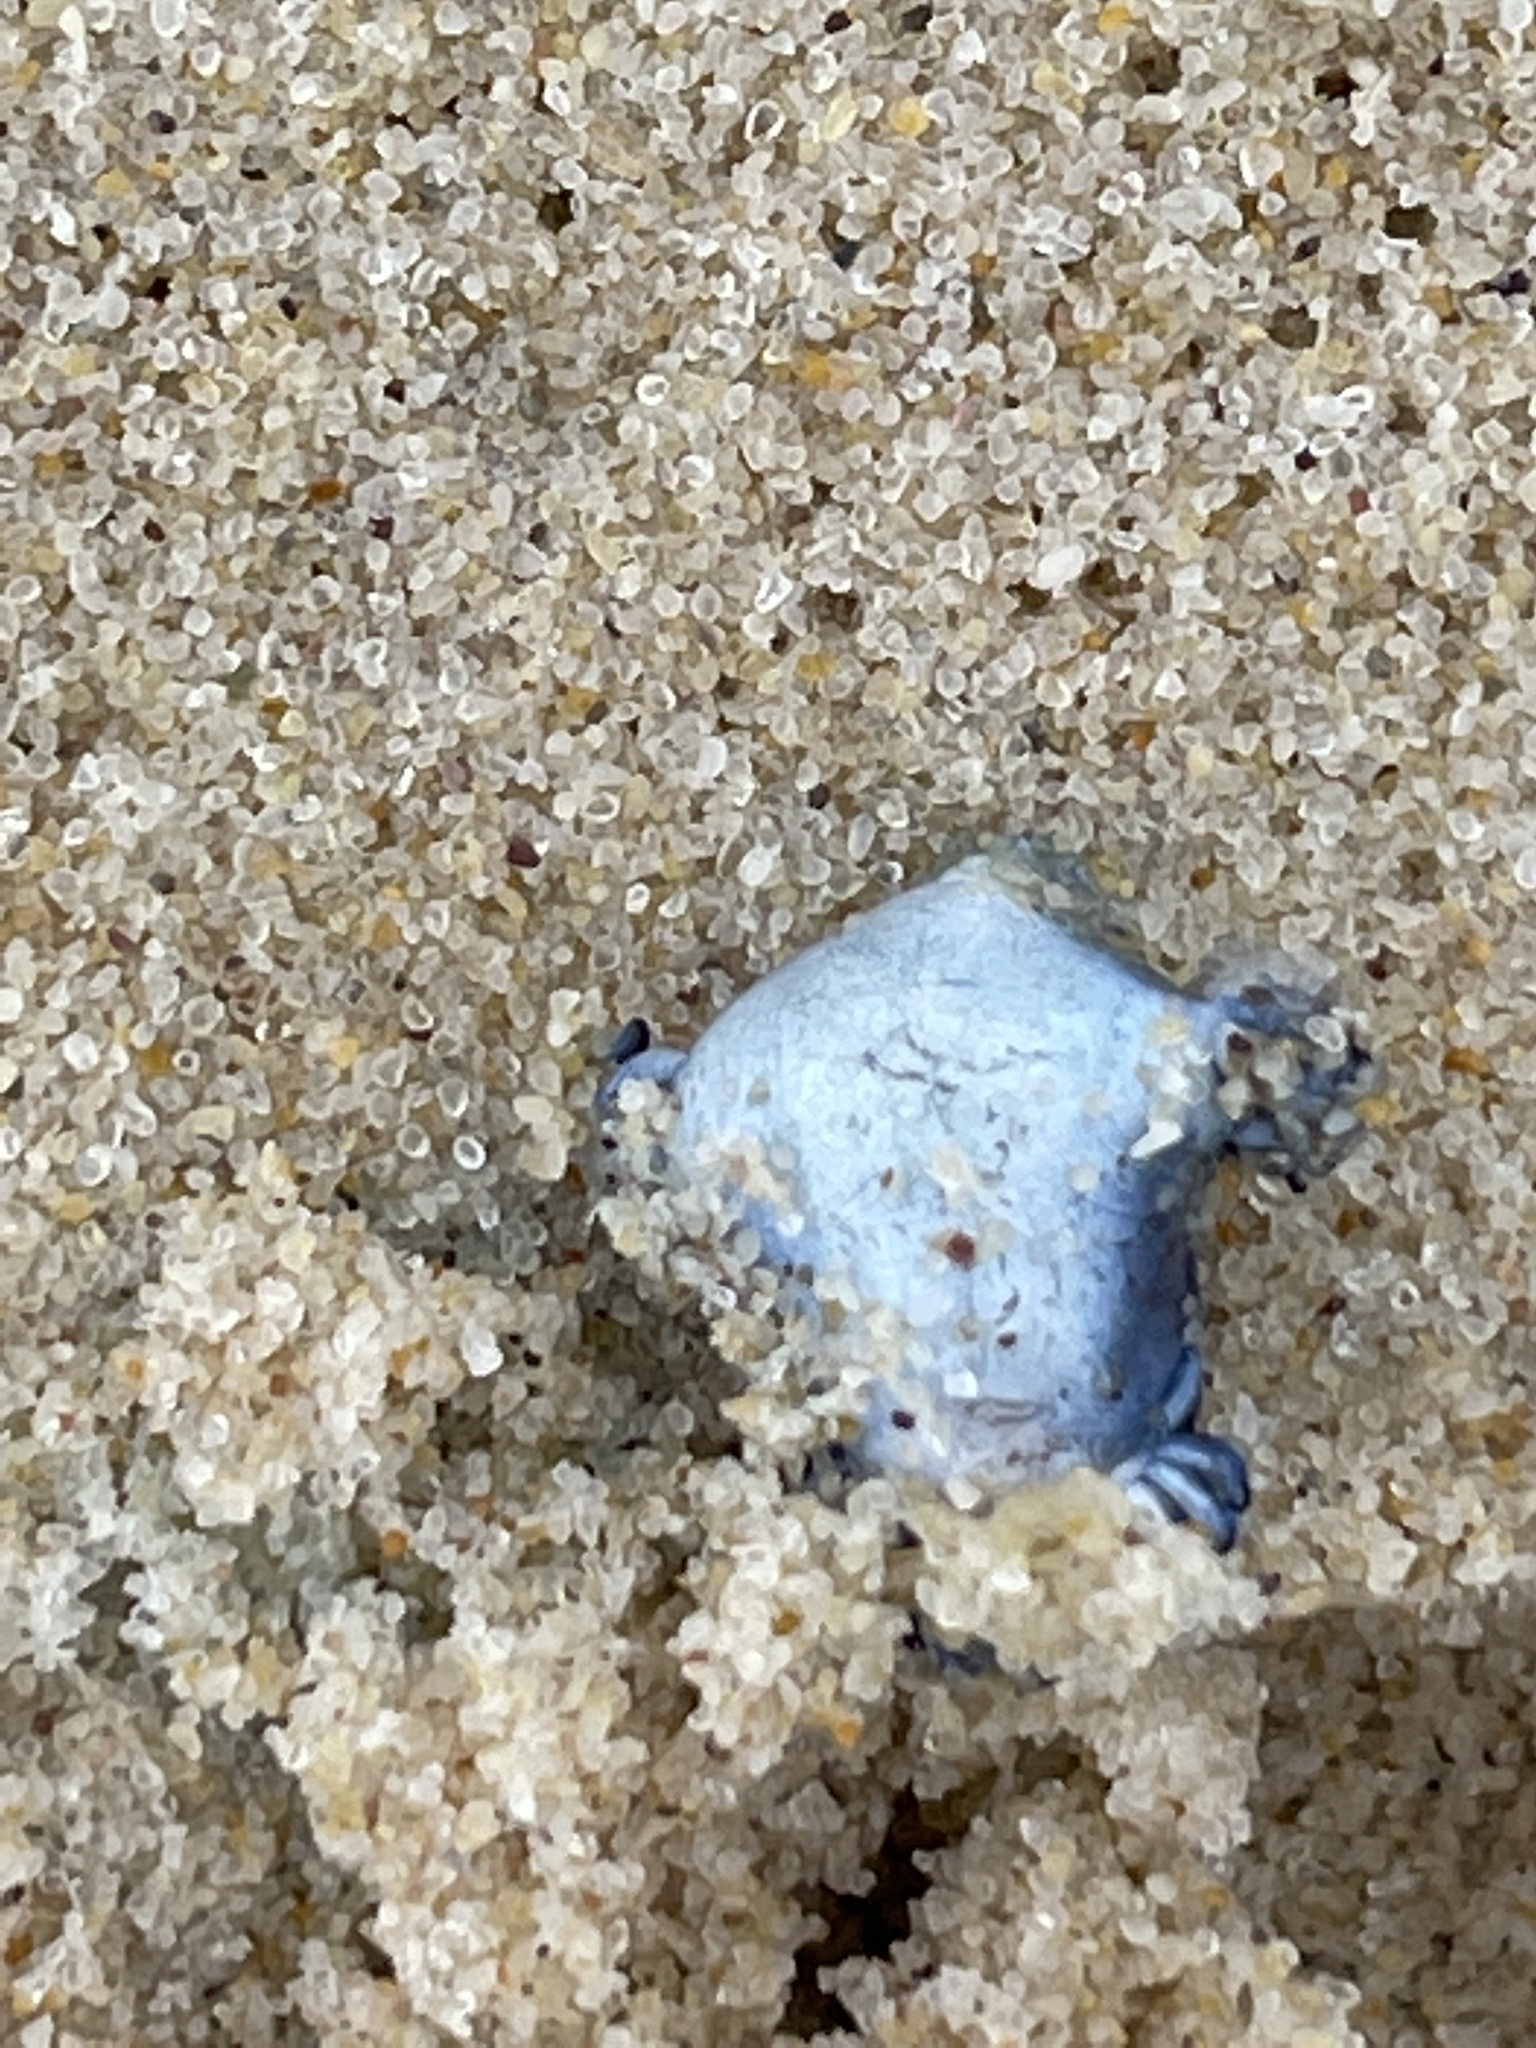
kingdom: Animalia
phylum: Mollusca
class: Gastropoda
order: Nudibranchia
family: Glaucidae
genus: Glaucus
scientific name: Glaucus atlanticus
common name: Purple ocean slug
